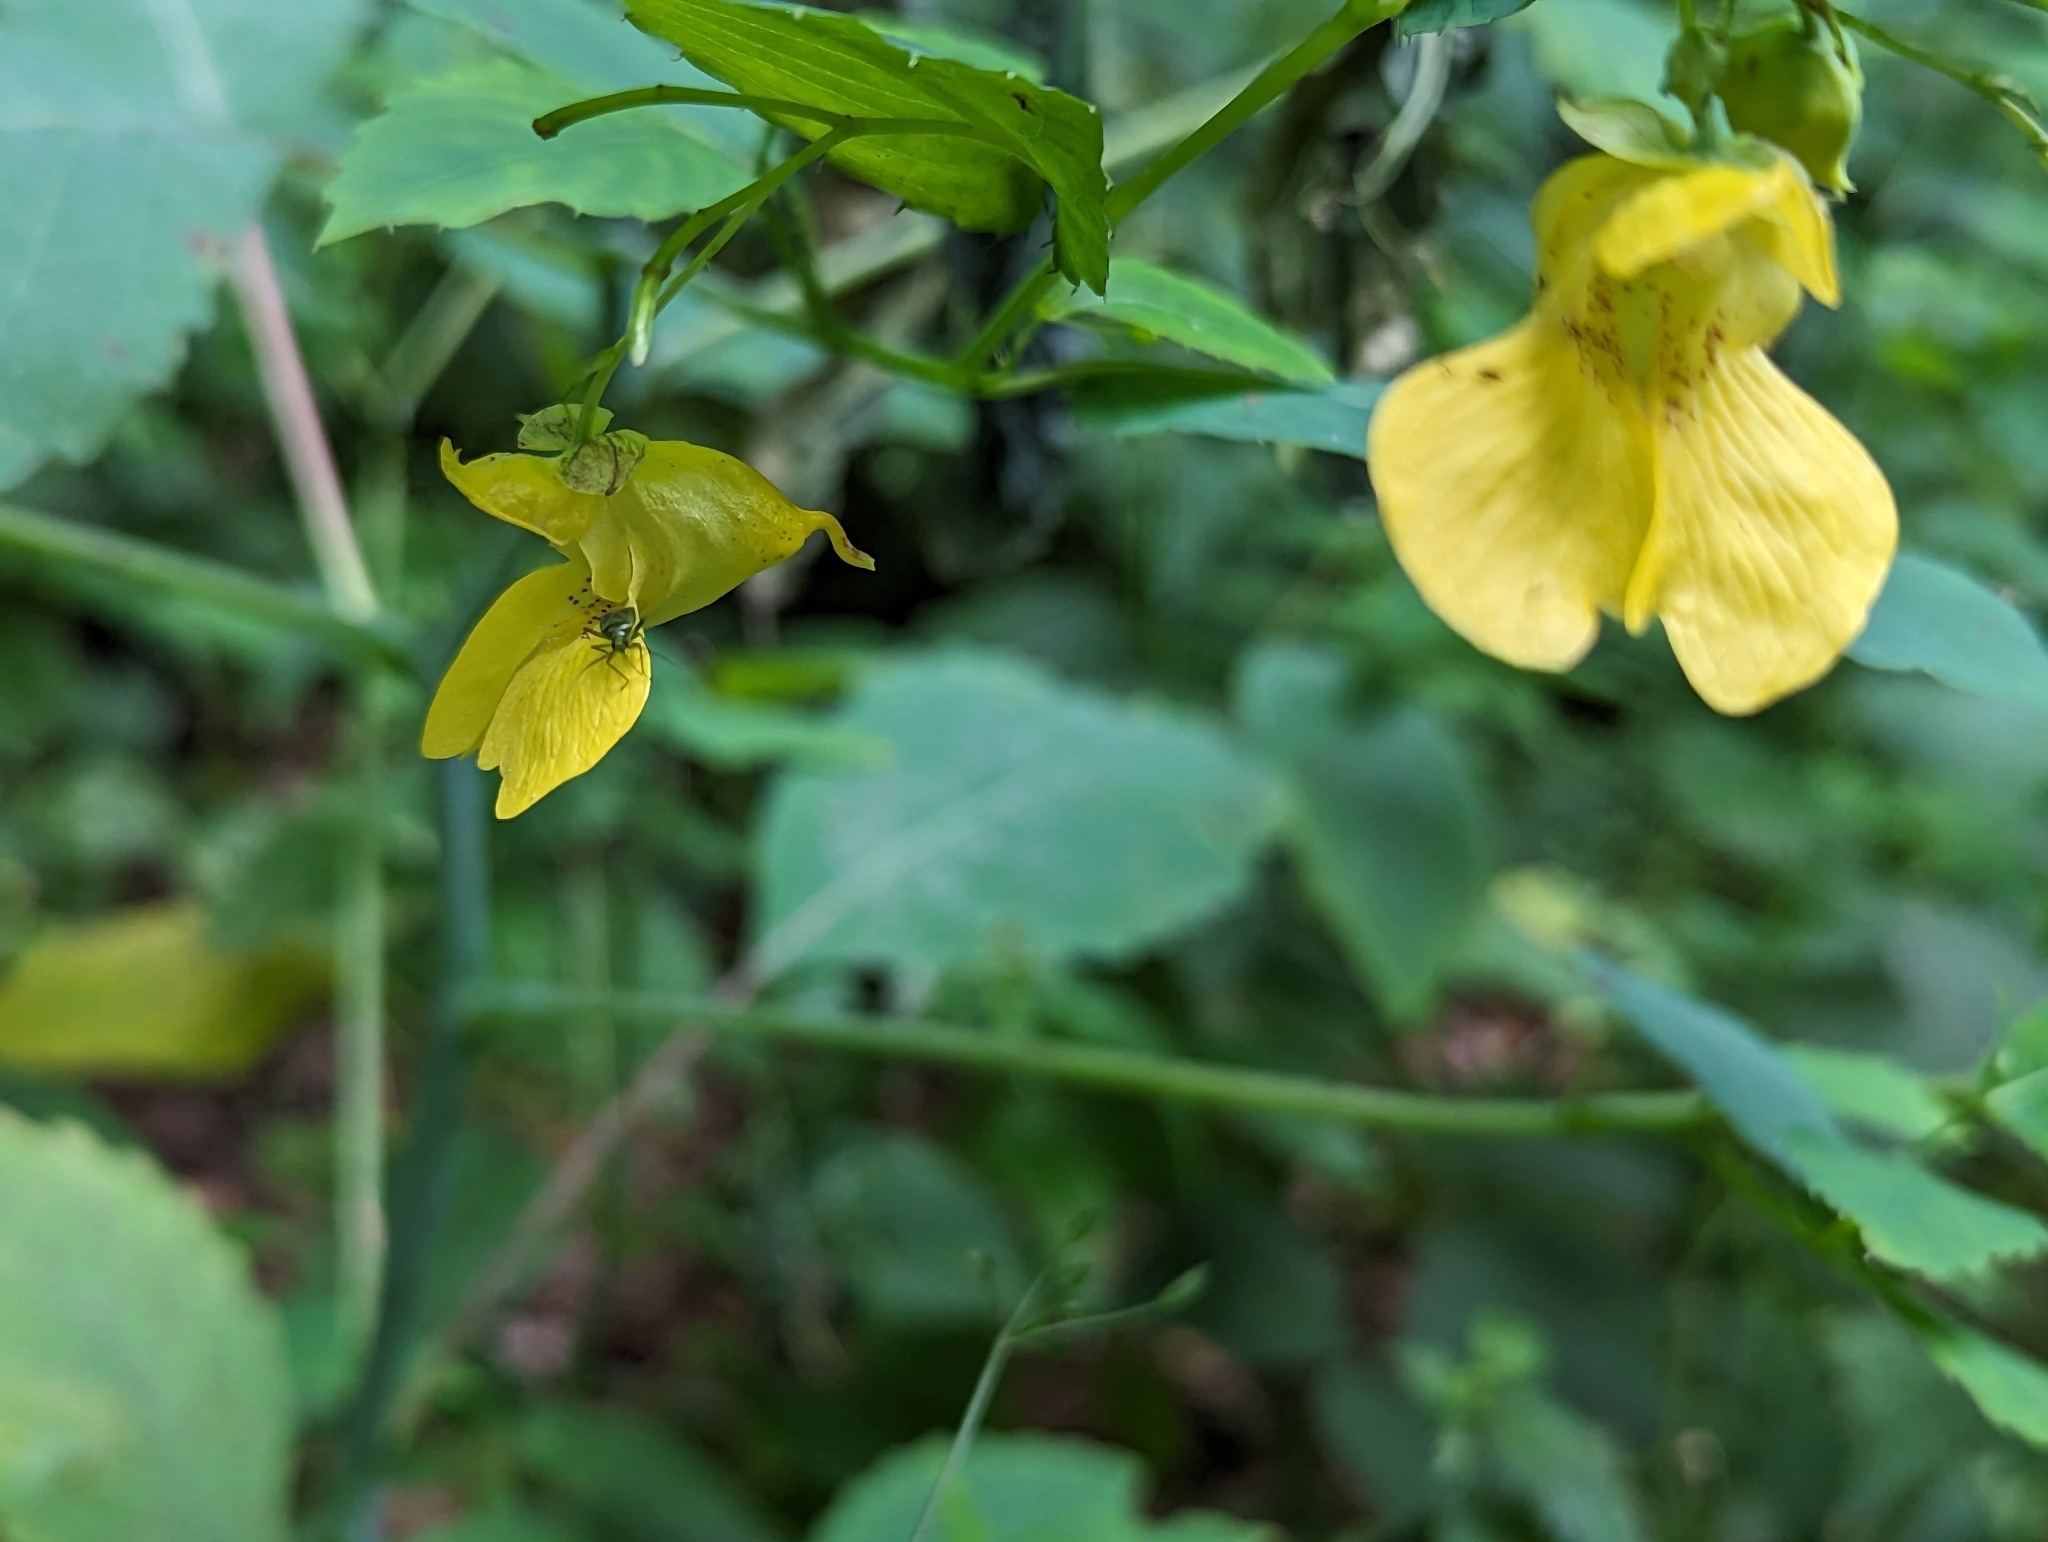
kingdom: Plantae
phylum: Tracheophyta
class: Magnoliopsida
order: Ericales
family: Balsaminaceae
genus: Impatiens
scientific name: Impatiens pallida
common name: Pale snapweed
